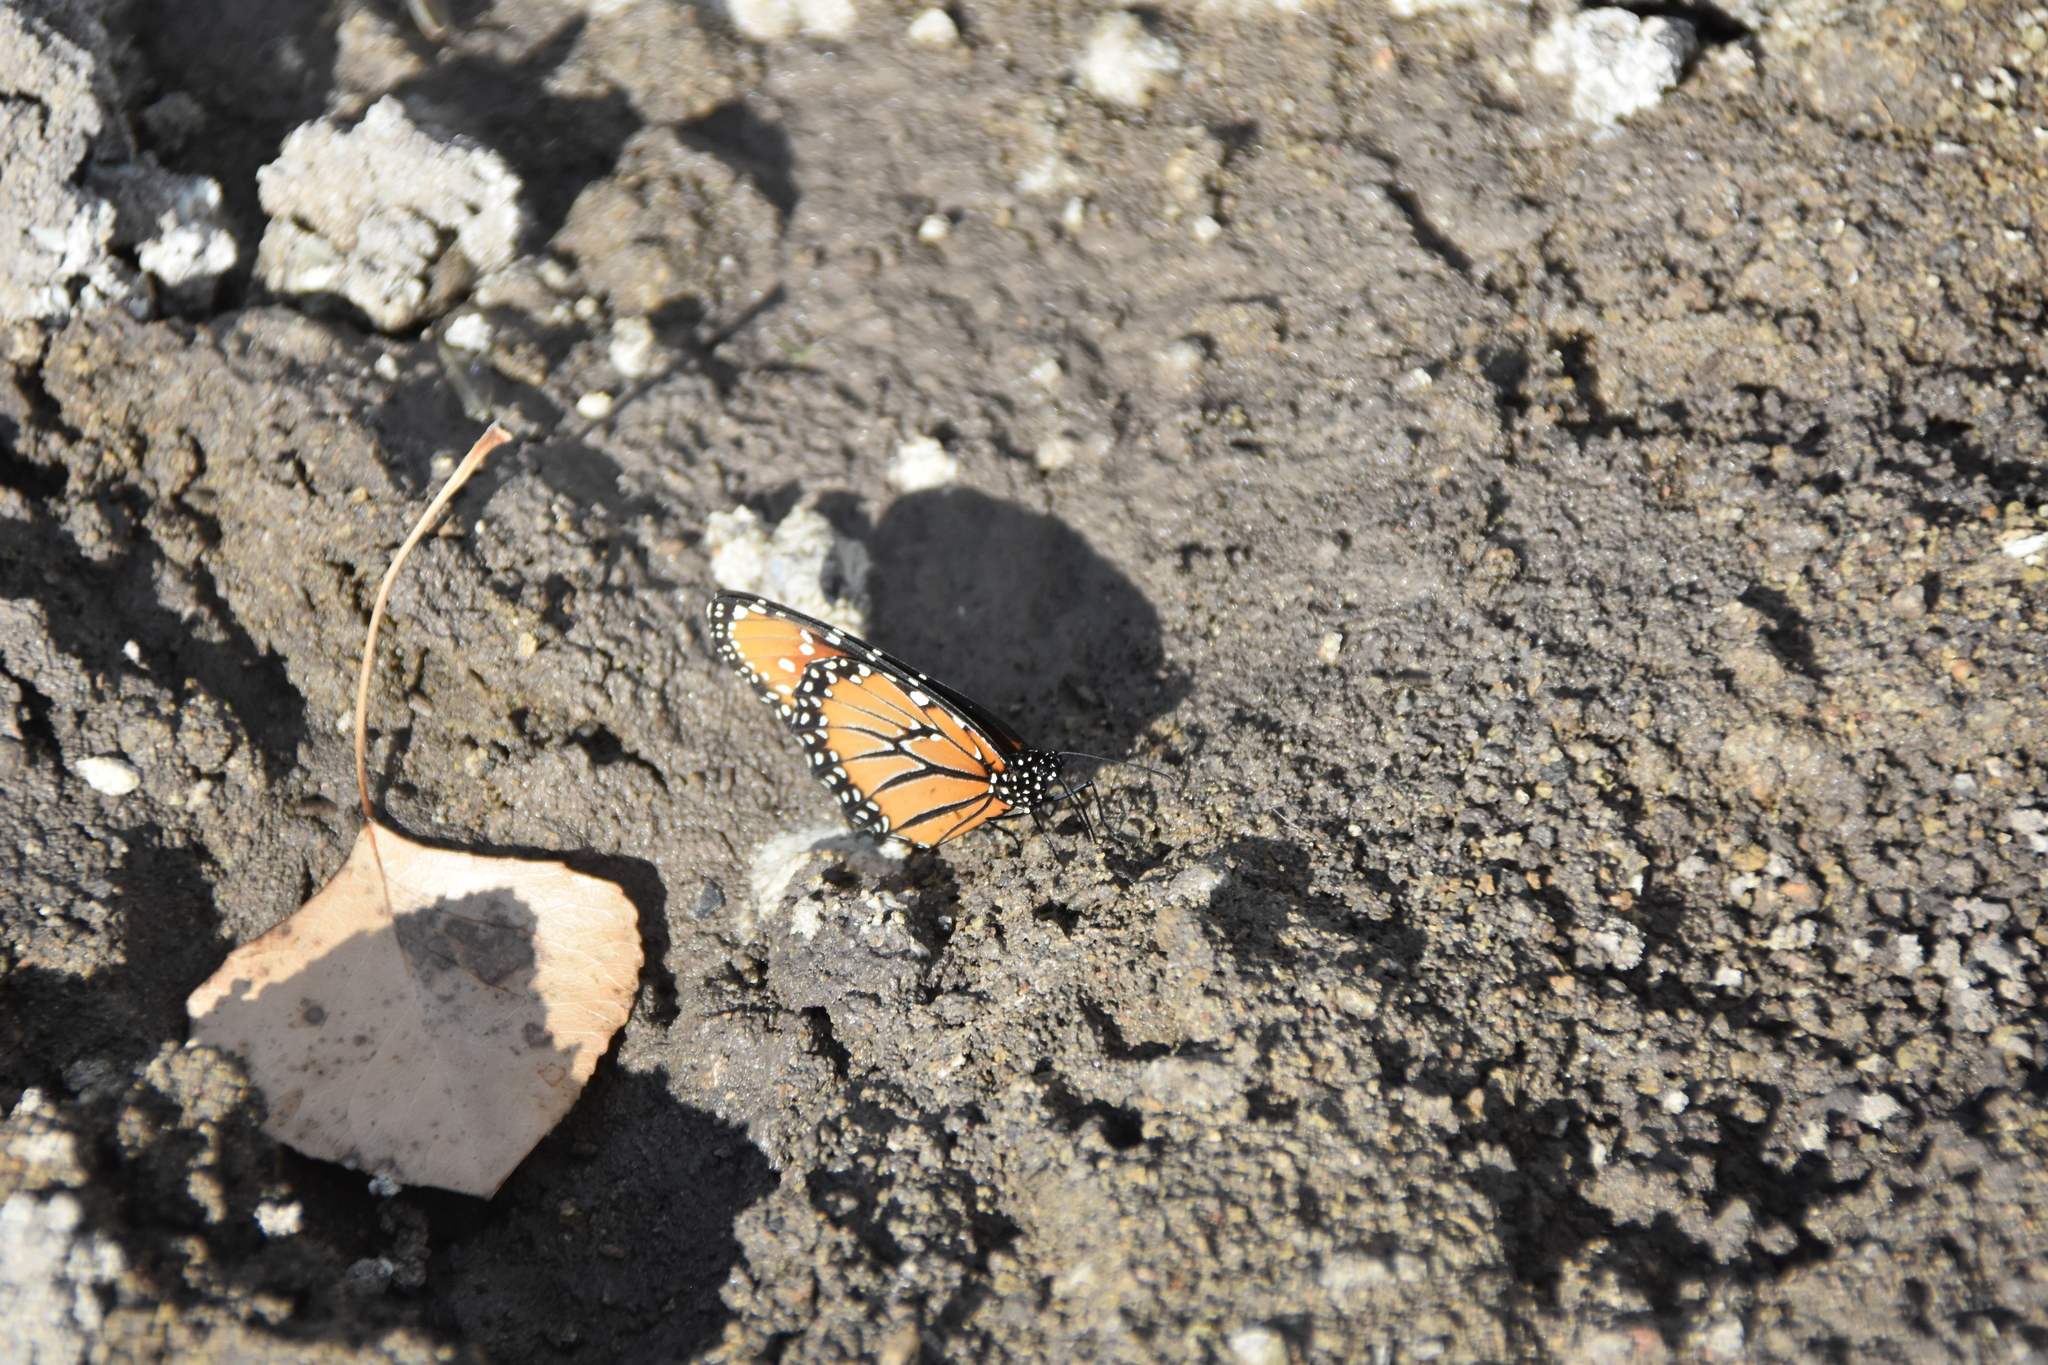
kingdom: Animalia
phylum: Arthropoda
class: Insecta
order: Lepidoptera
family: Nymphalidae
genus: Danaus
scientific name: Danaus gilippus
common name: Queen
